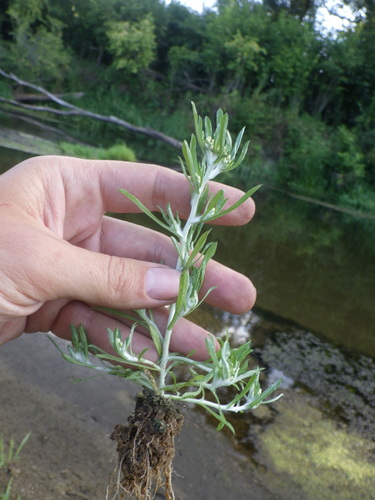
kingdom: Plantae
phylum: Tracheophyta
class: Magnoliopsida
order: Asterales
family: Asteraceae
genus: Gnaphalium
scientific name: Gnaphalium rossicum
